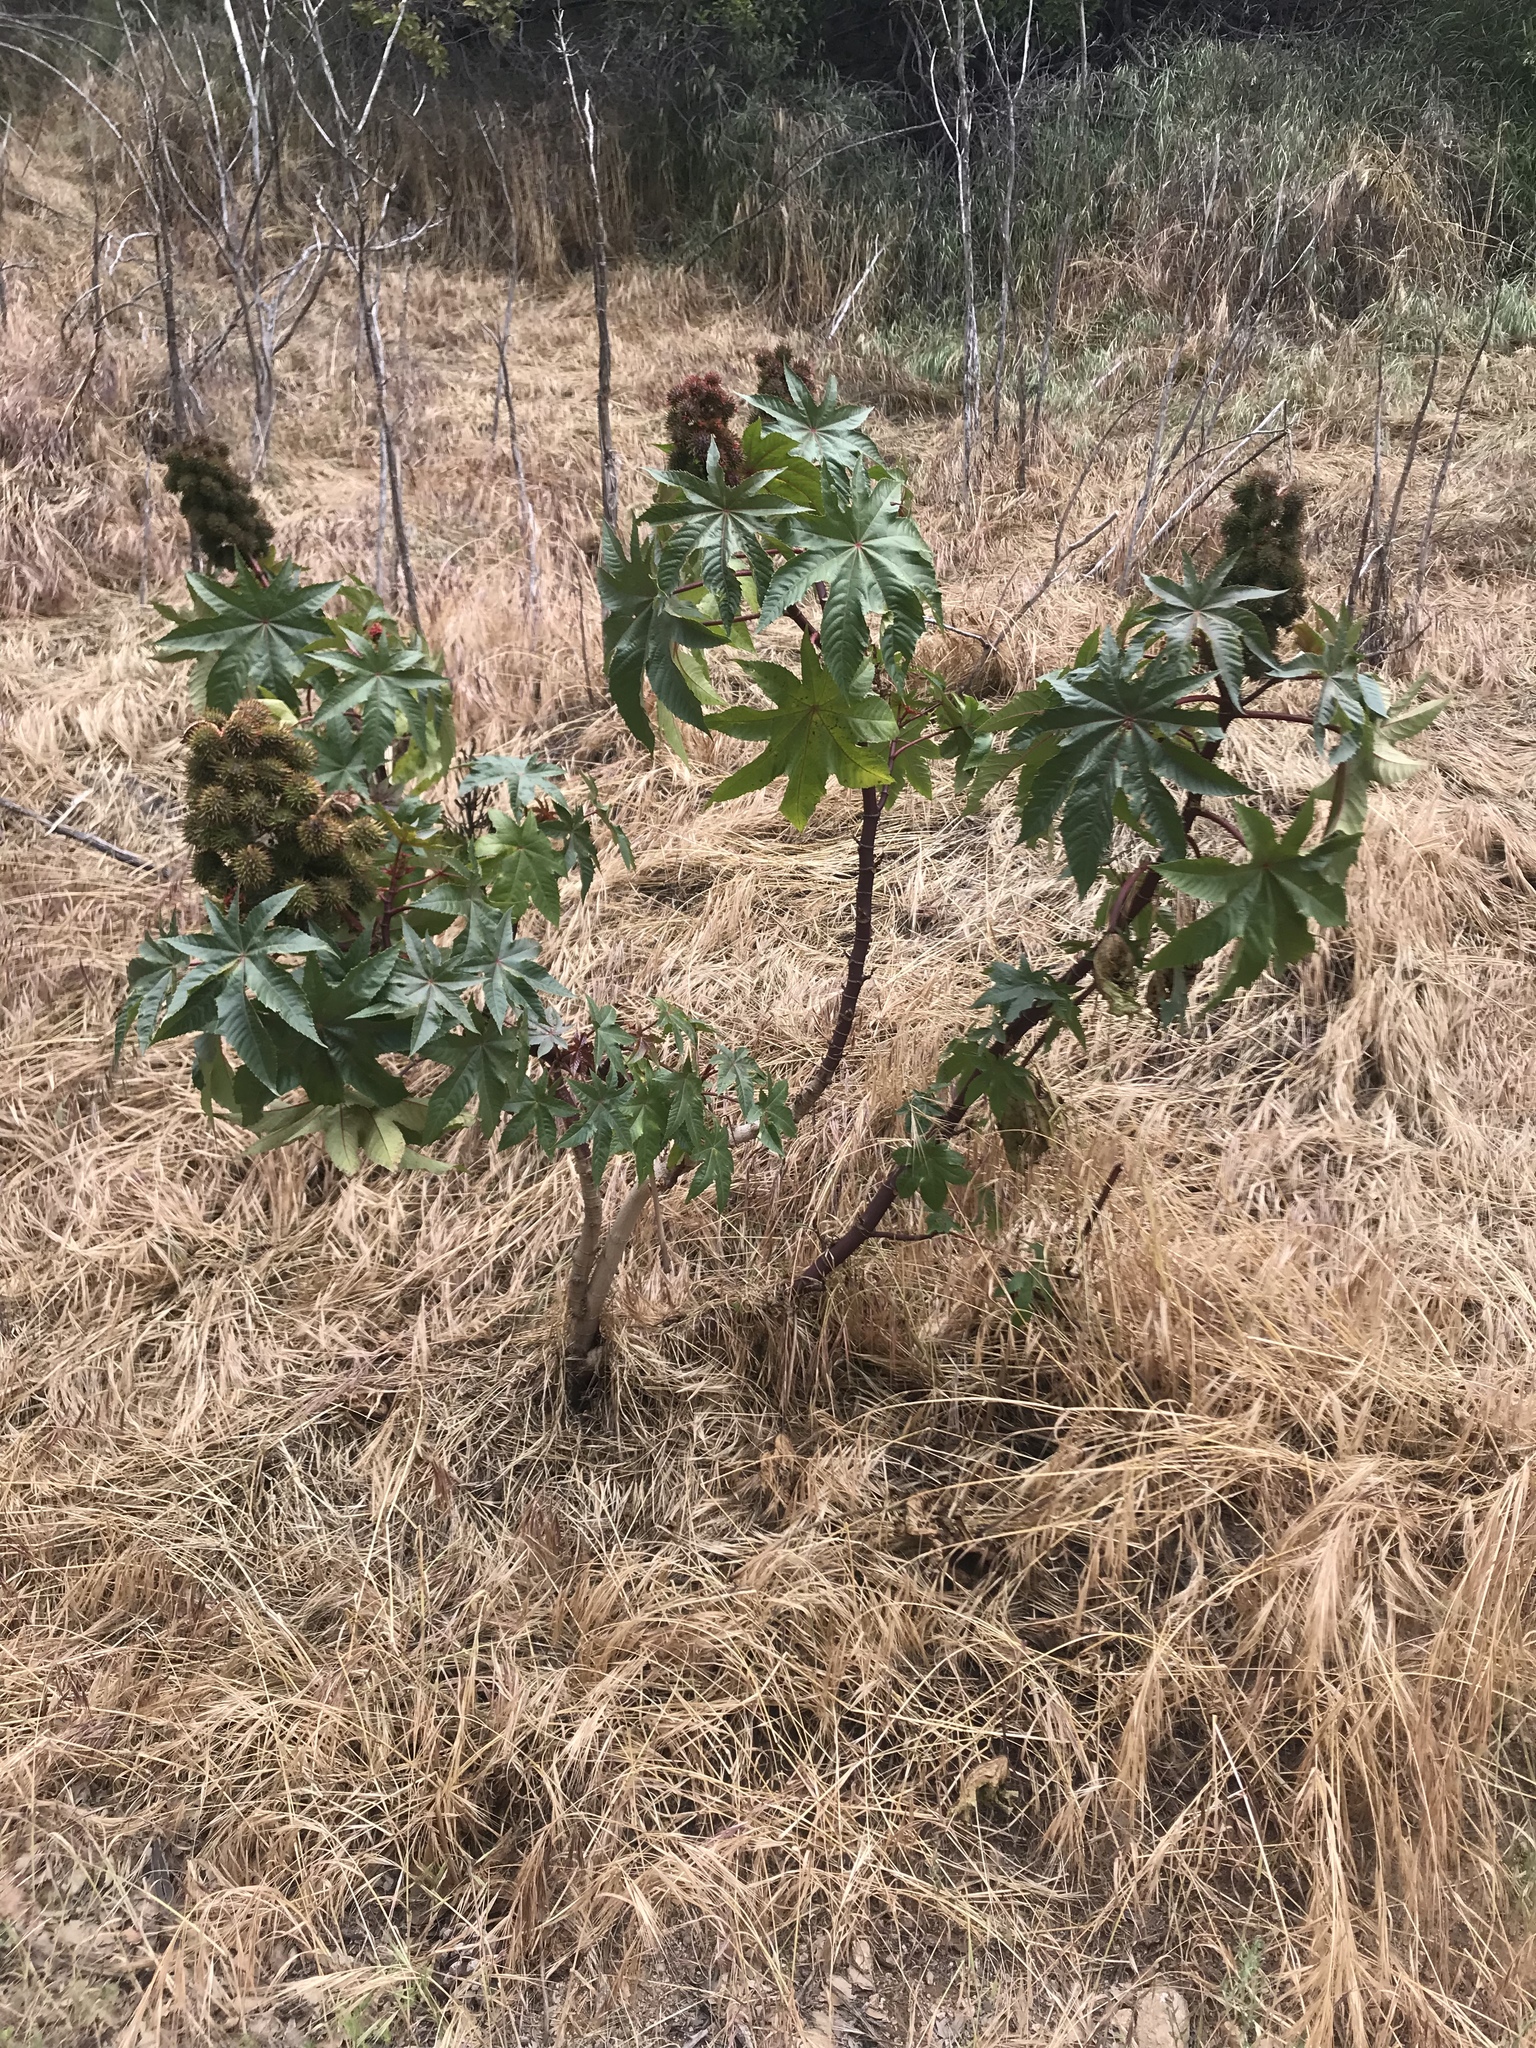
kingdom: Plantae
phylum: Tracheophyta
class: Magnoliopsida
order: Malpighiales
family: Euphorbiaceae
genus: Ricinus
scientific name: Ricinus communis
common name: Castor-oil-plant
